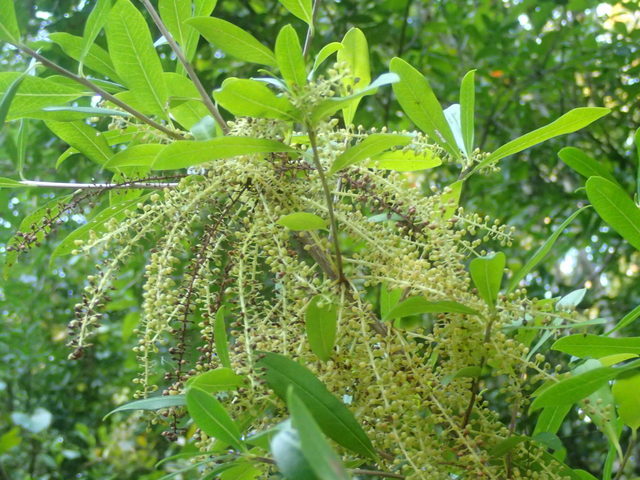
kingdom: Plantae
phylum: Tracheophyta
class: Magnoliopsida
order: Ericales
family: Cyrillaceae
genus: Cyrilla
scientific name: Cyrilla racemiflora
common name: Black titi
